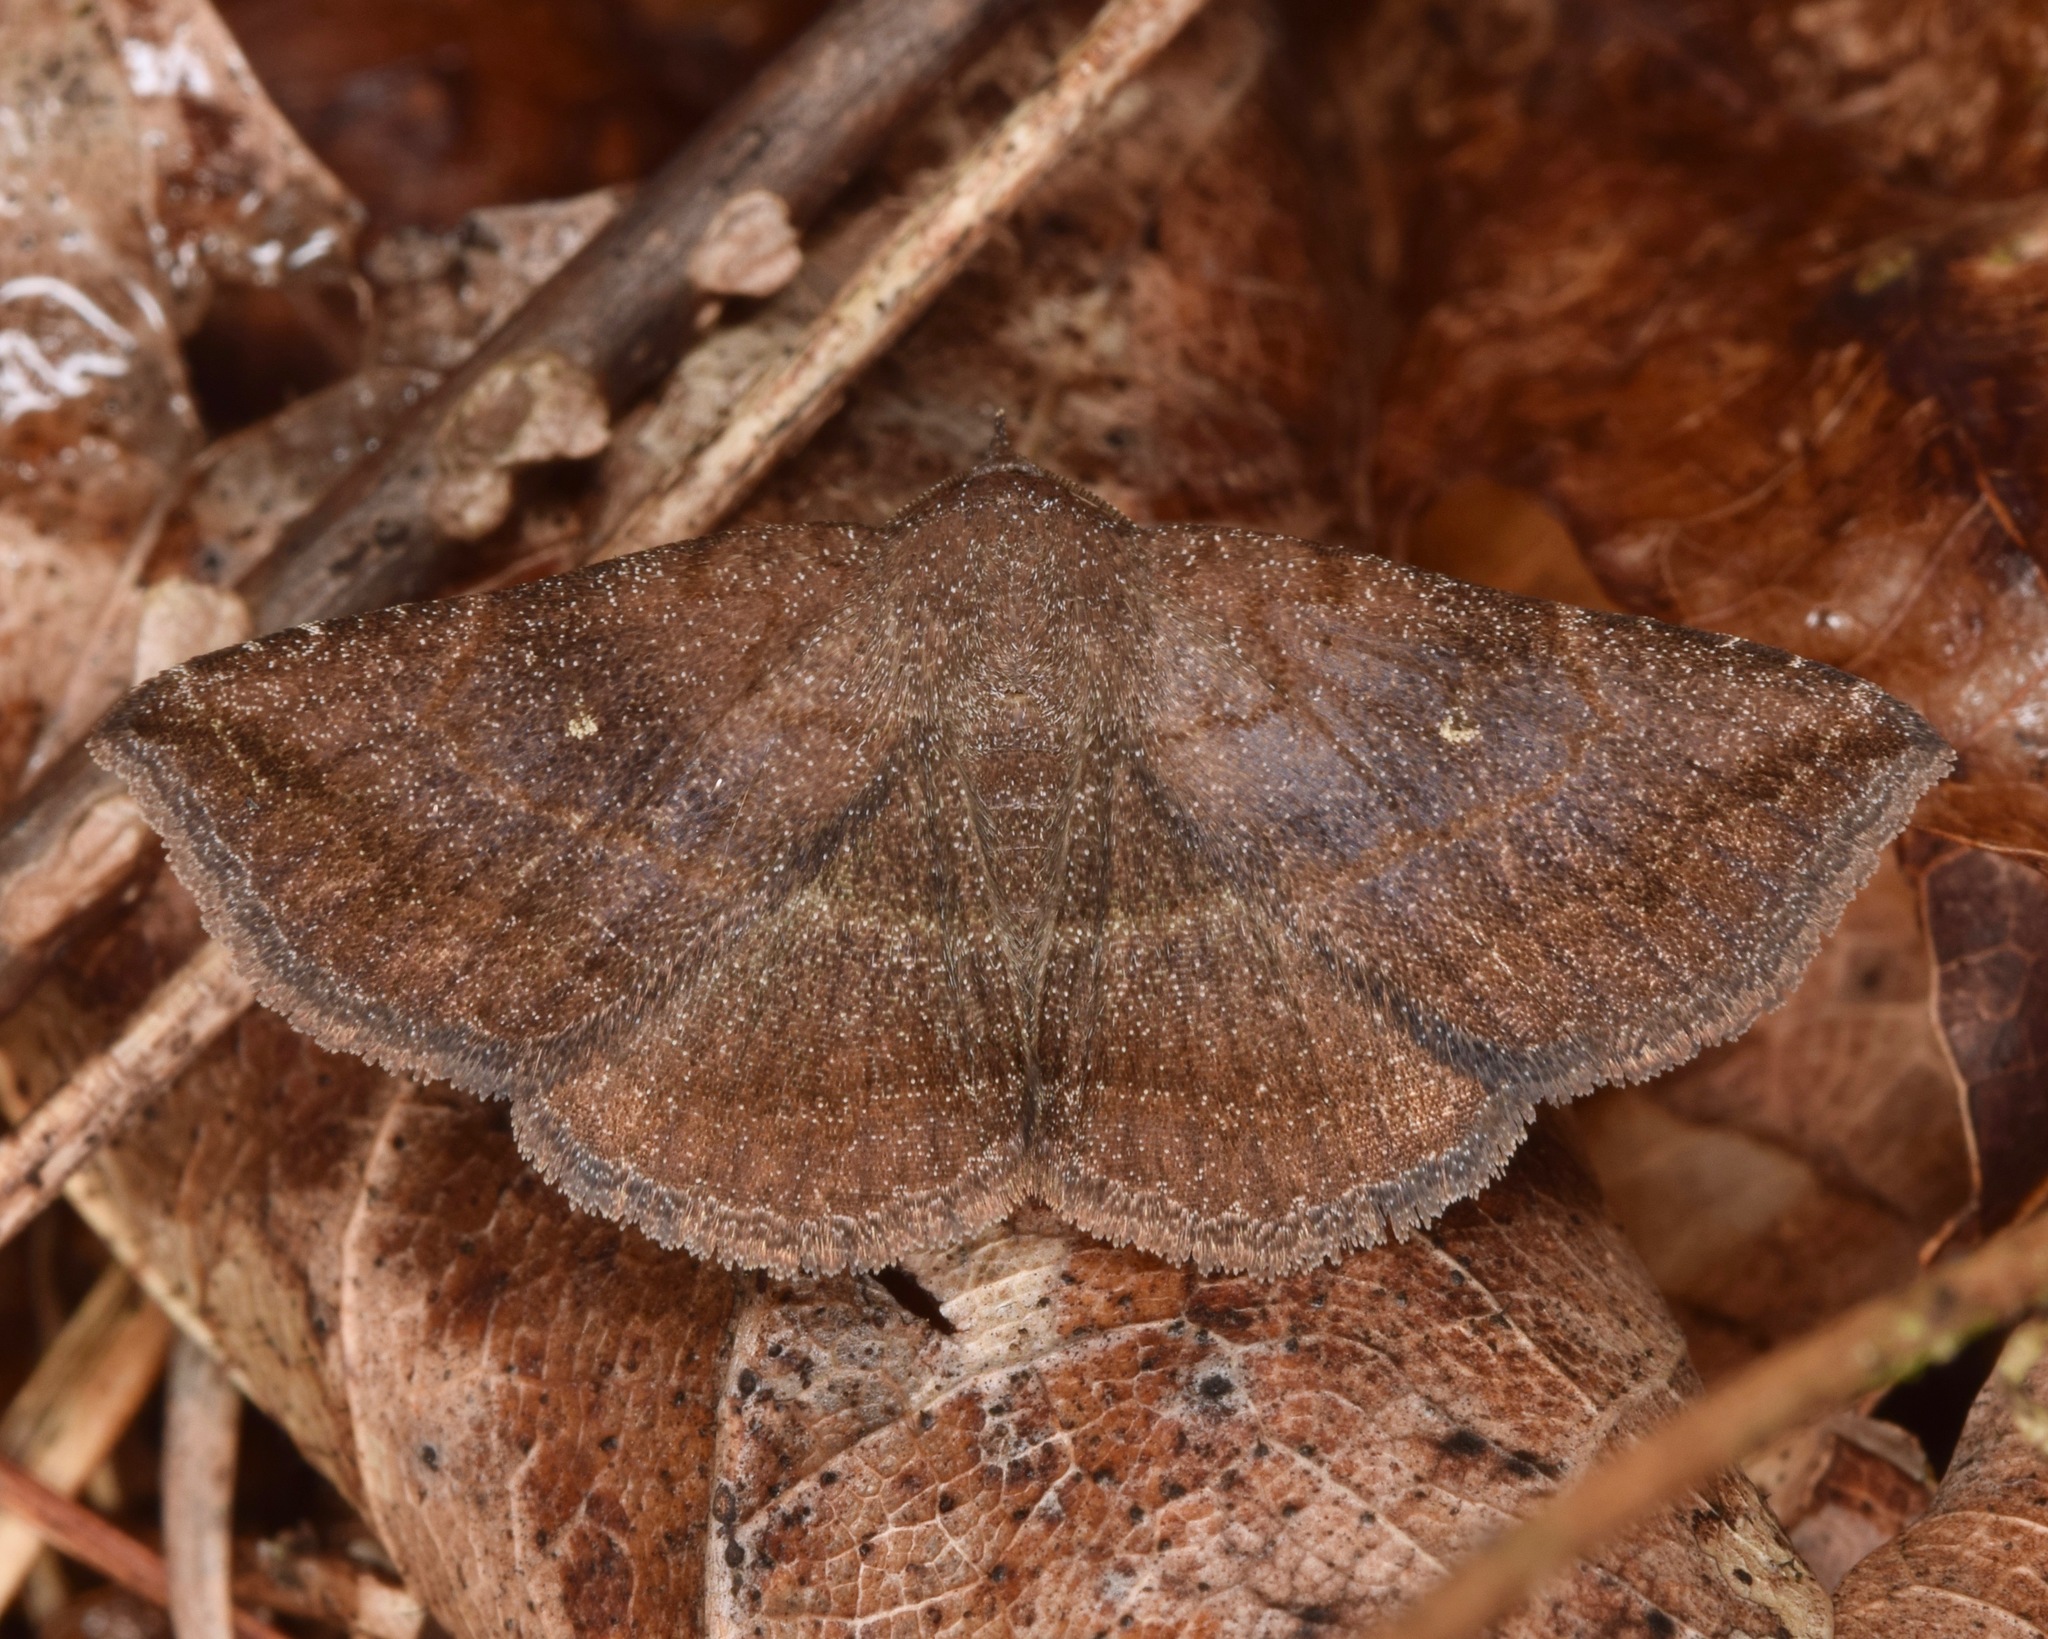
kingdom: Animalia
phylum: Arthropoda
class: Insecta
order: Lepidoptera
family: Erebidae
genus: Lesmone
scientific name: Lesmone detrahens
